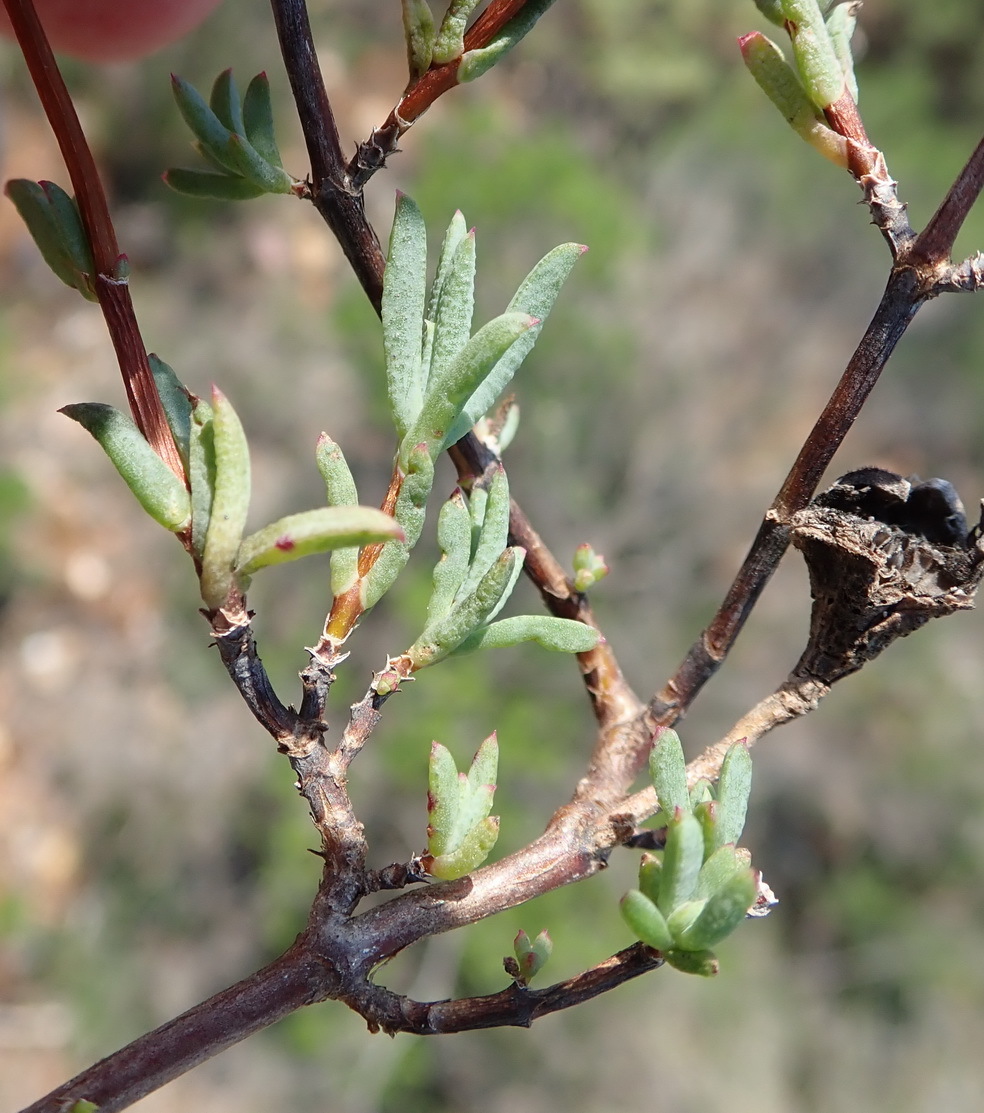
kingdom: Plantae
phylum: Tracheophyta
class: Magnoliopsida
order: Caryophyllales
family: Aizoaceae
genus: Lampranthus
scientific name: Lampranthus elegans
